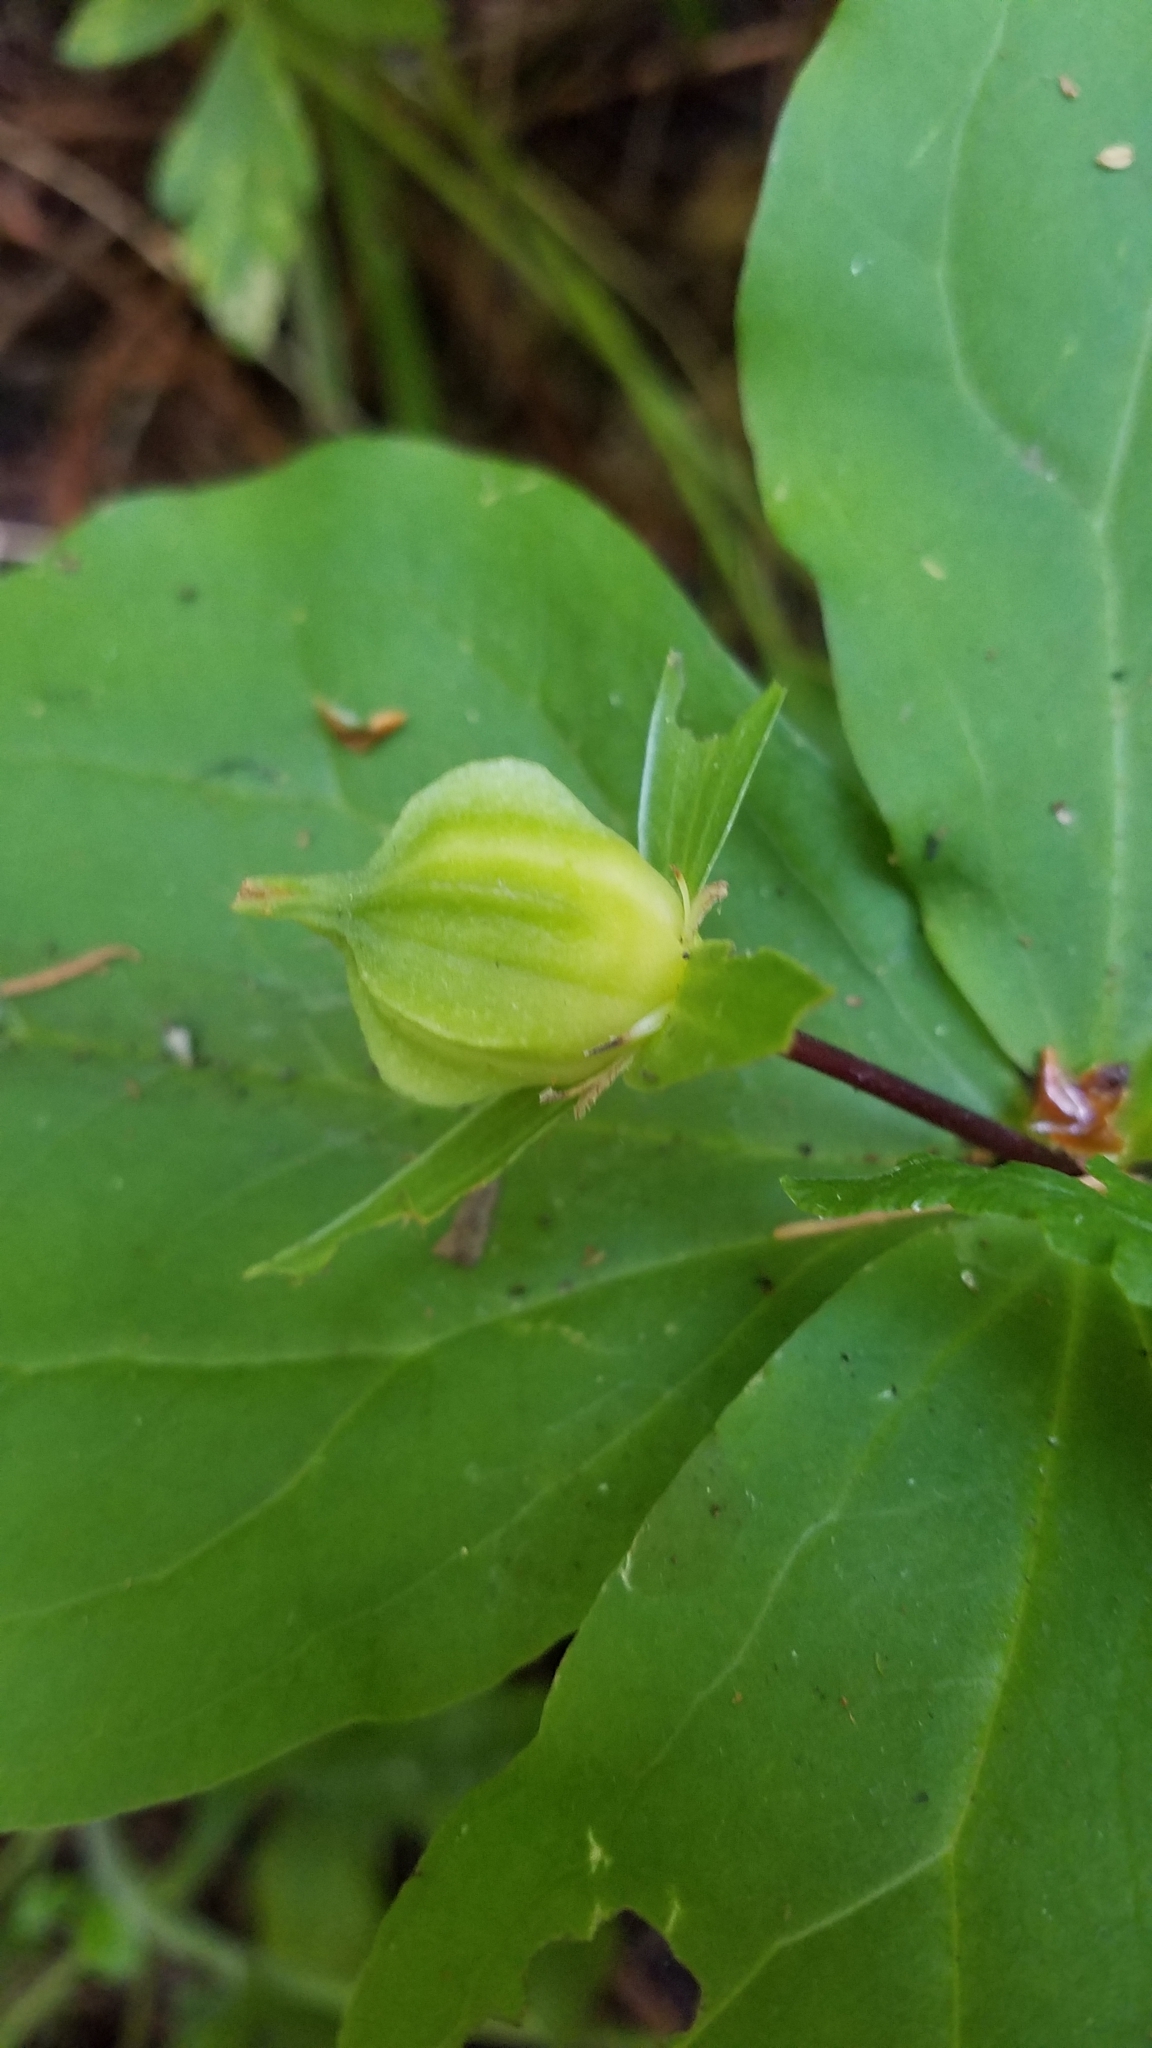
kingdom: Plantae
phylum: Tracheophyta
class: Liliopsida
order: Liliales
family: Melanthiaceae
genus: Trillium
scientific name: Trillium ovatum
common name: Pacific trillium
